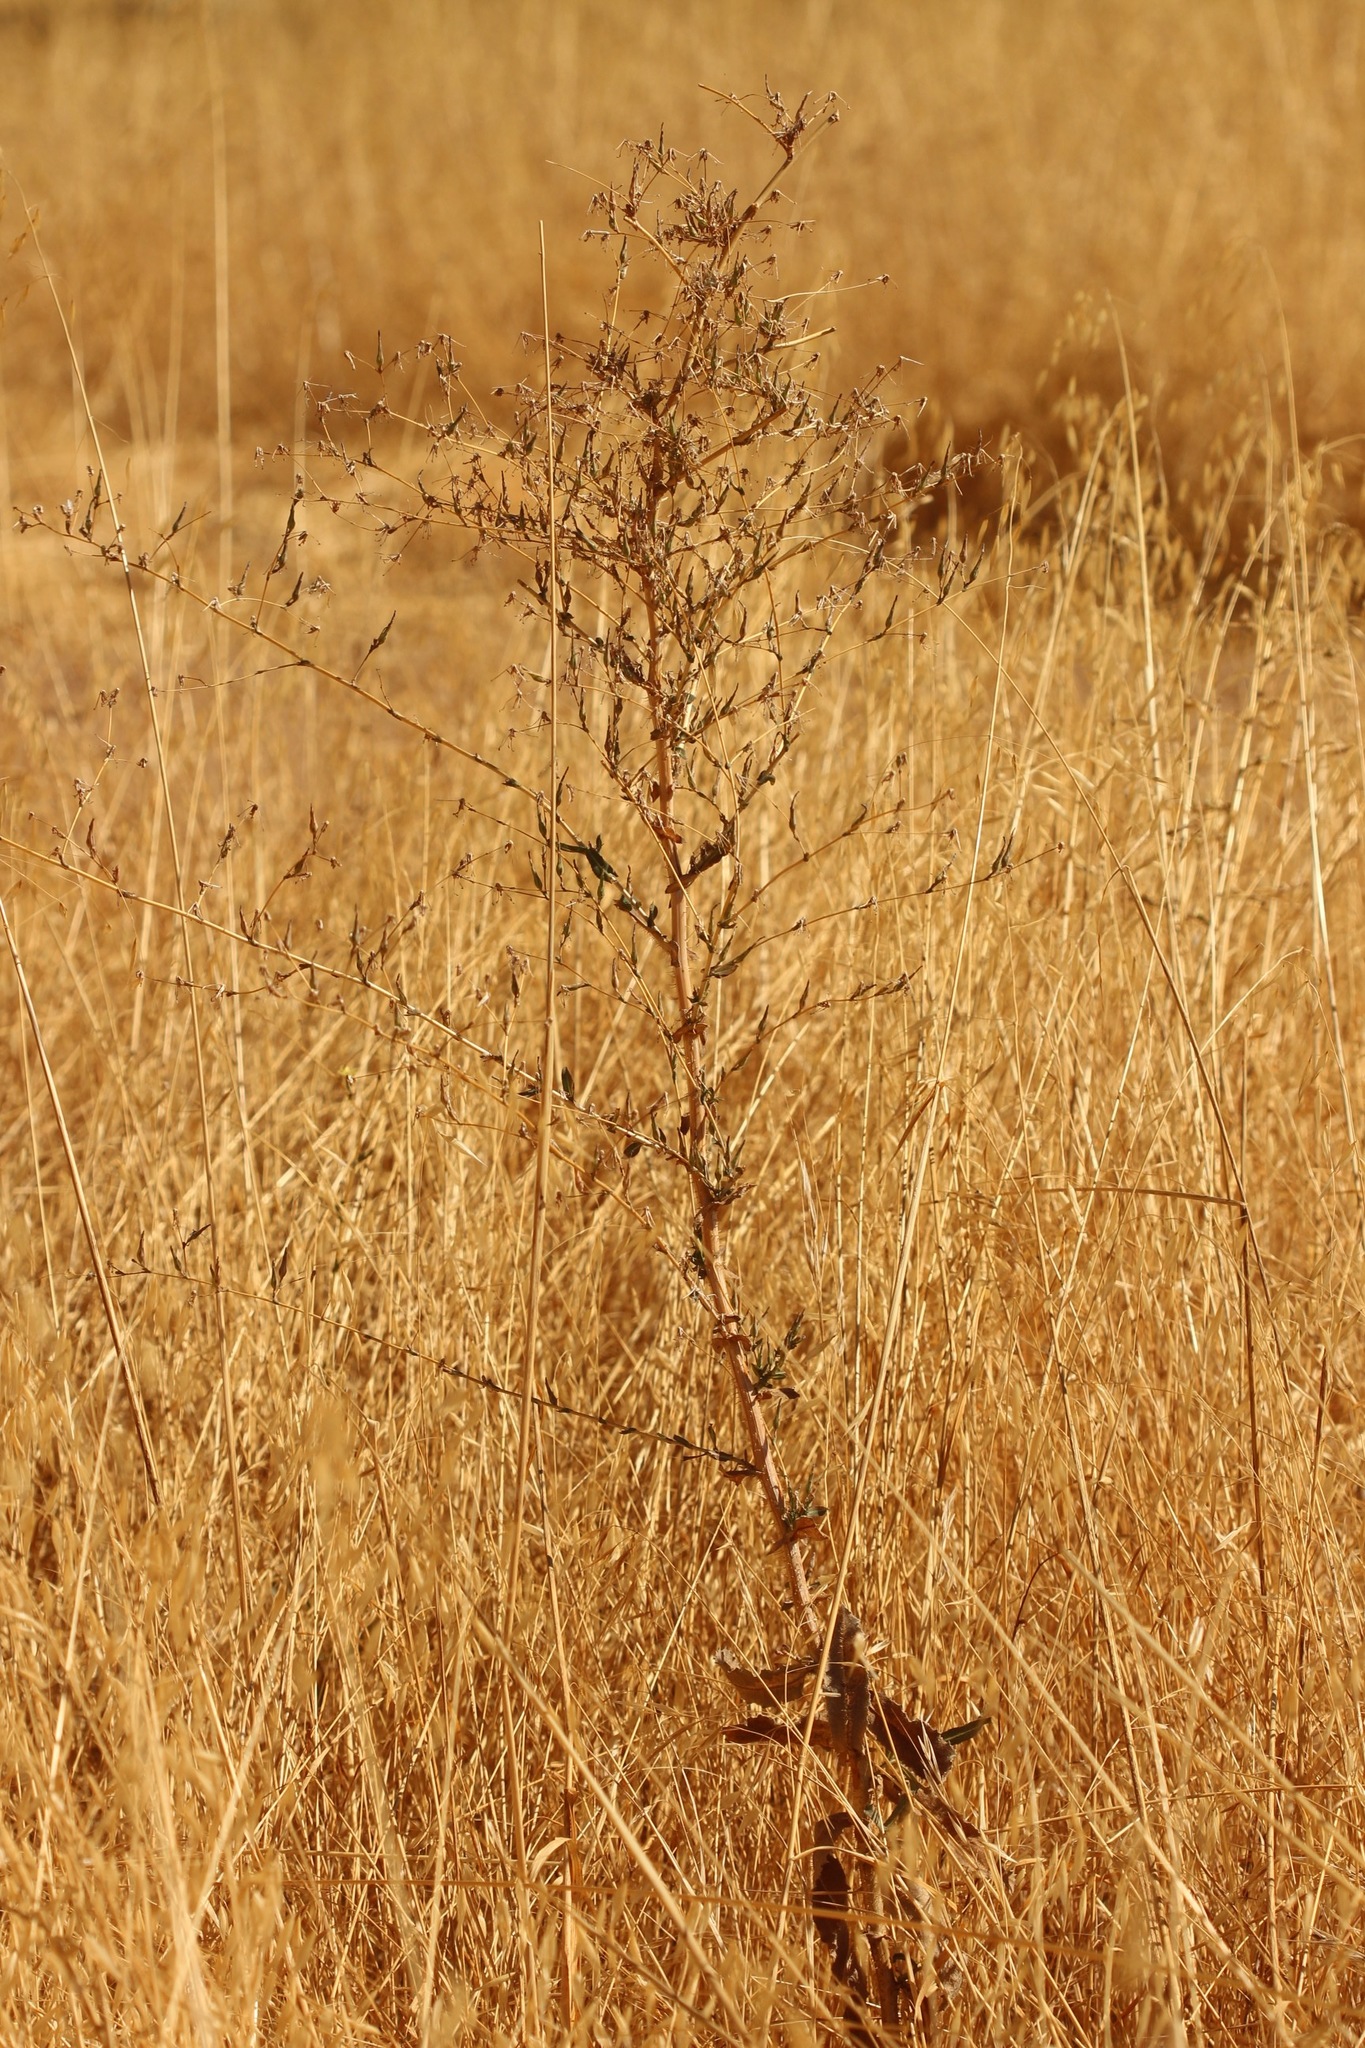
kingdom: Plantae
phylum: Tracheophyta
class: Magnoliopsida
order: Asterales
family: Asteraceae
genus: Lactuca
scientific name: Lactuca serriola
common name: Prickly lettuce
